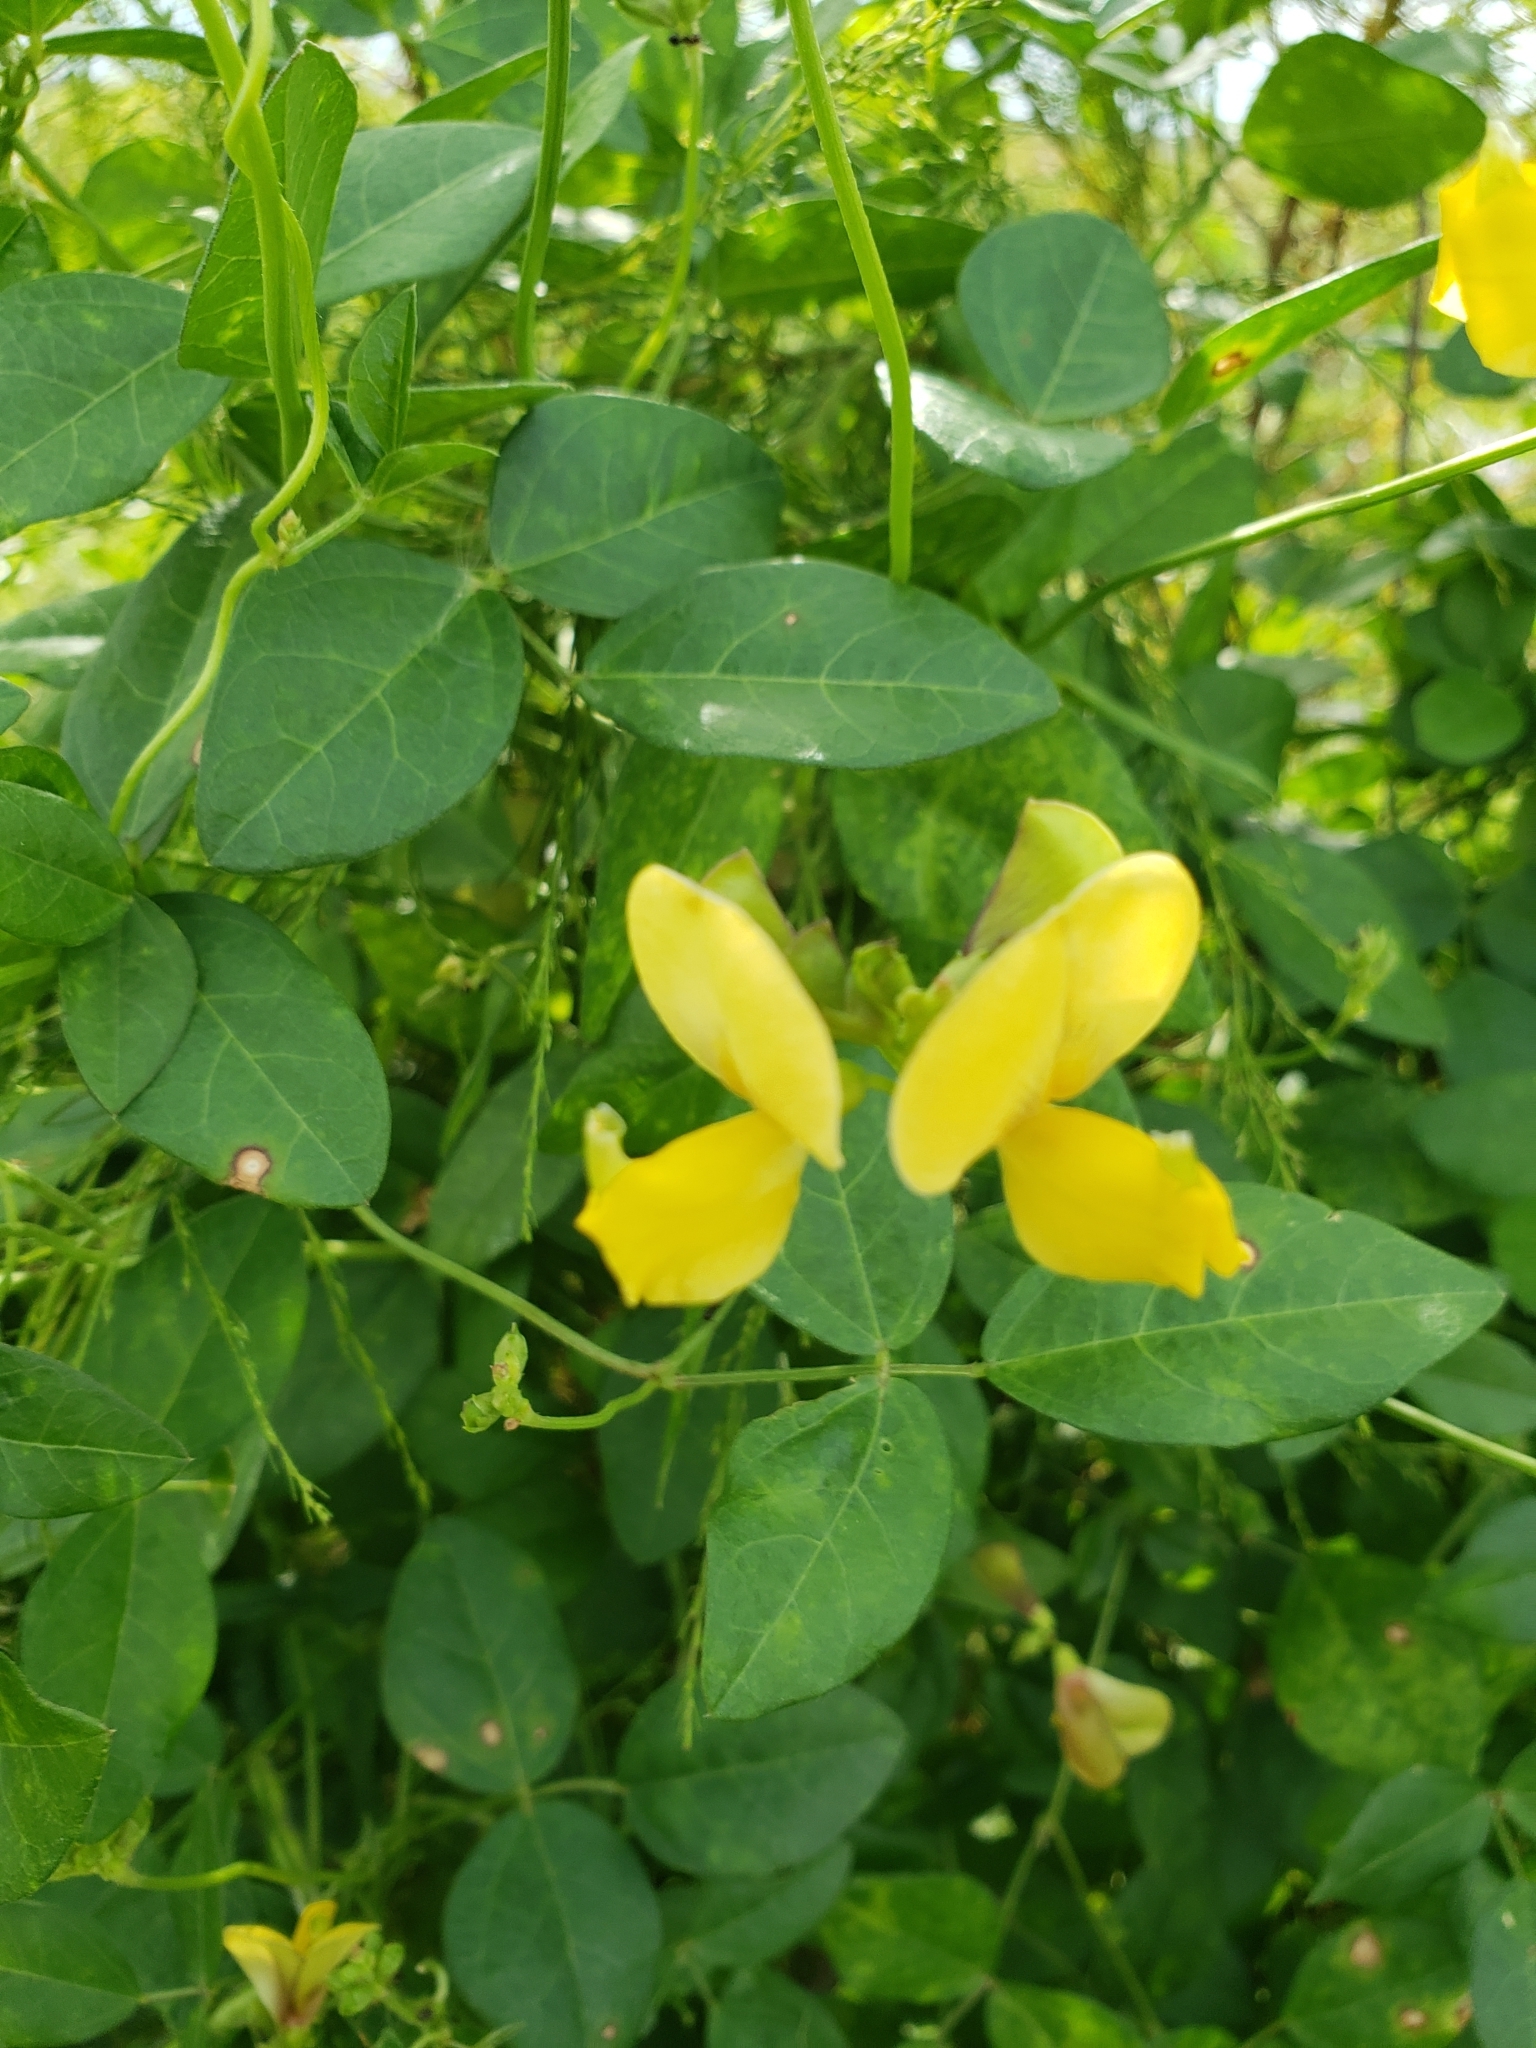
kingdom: Plantae
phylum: Tracheophyta
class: Magnoliopsida
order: Fabales
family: Fabaceae
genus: Vigna
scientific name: Vigna luteola
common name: Hairypod cowpea
